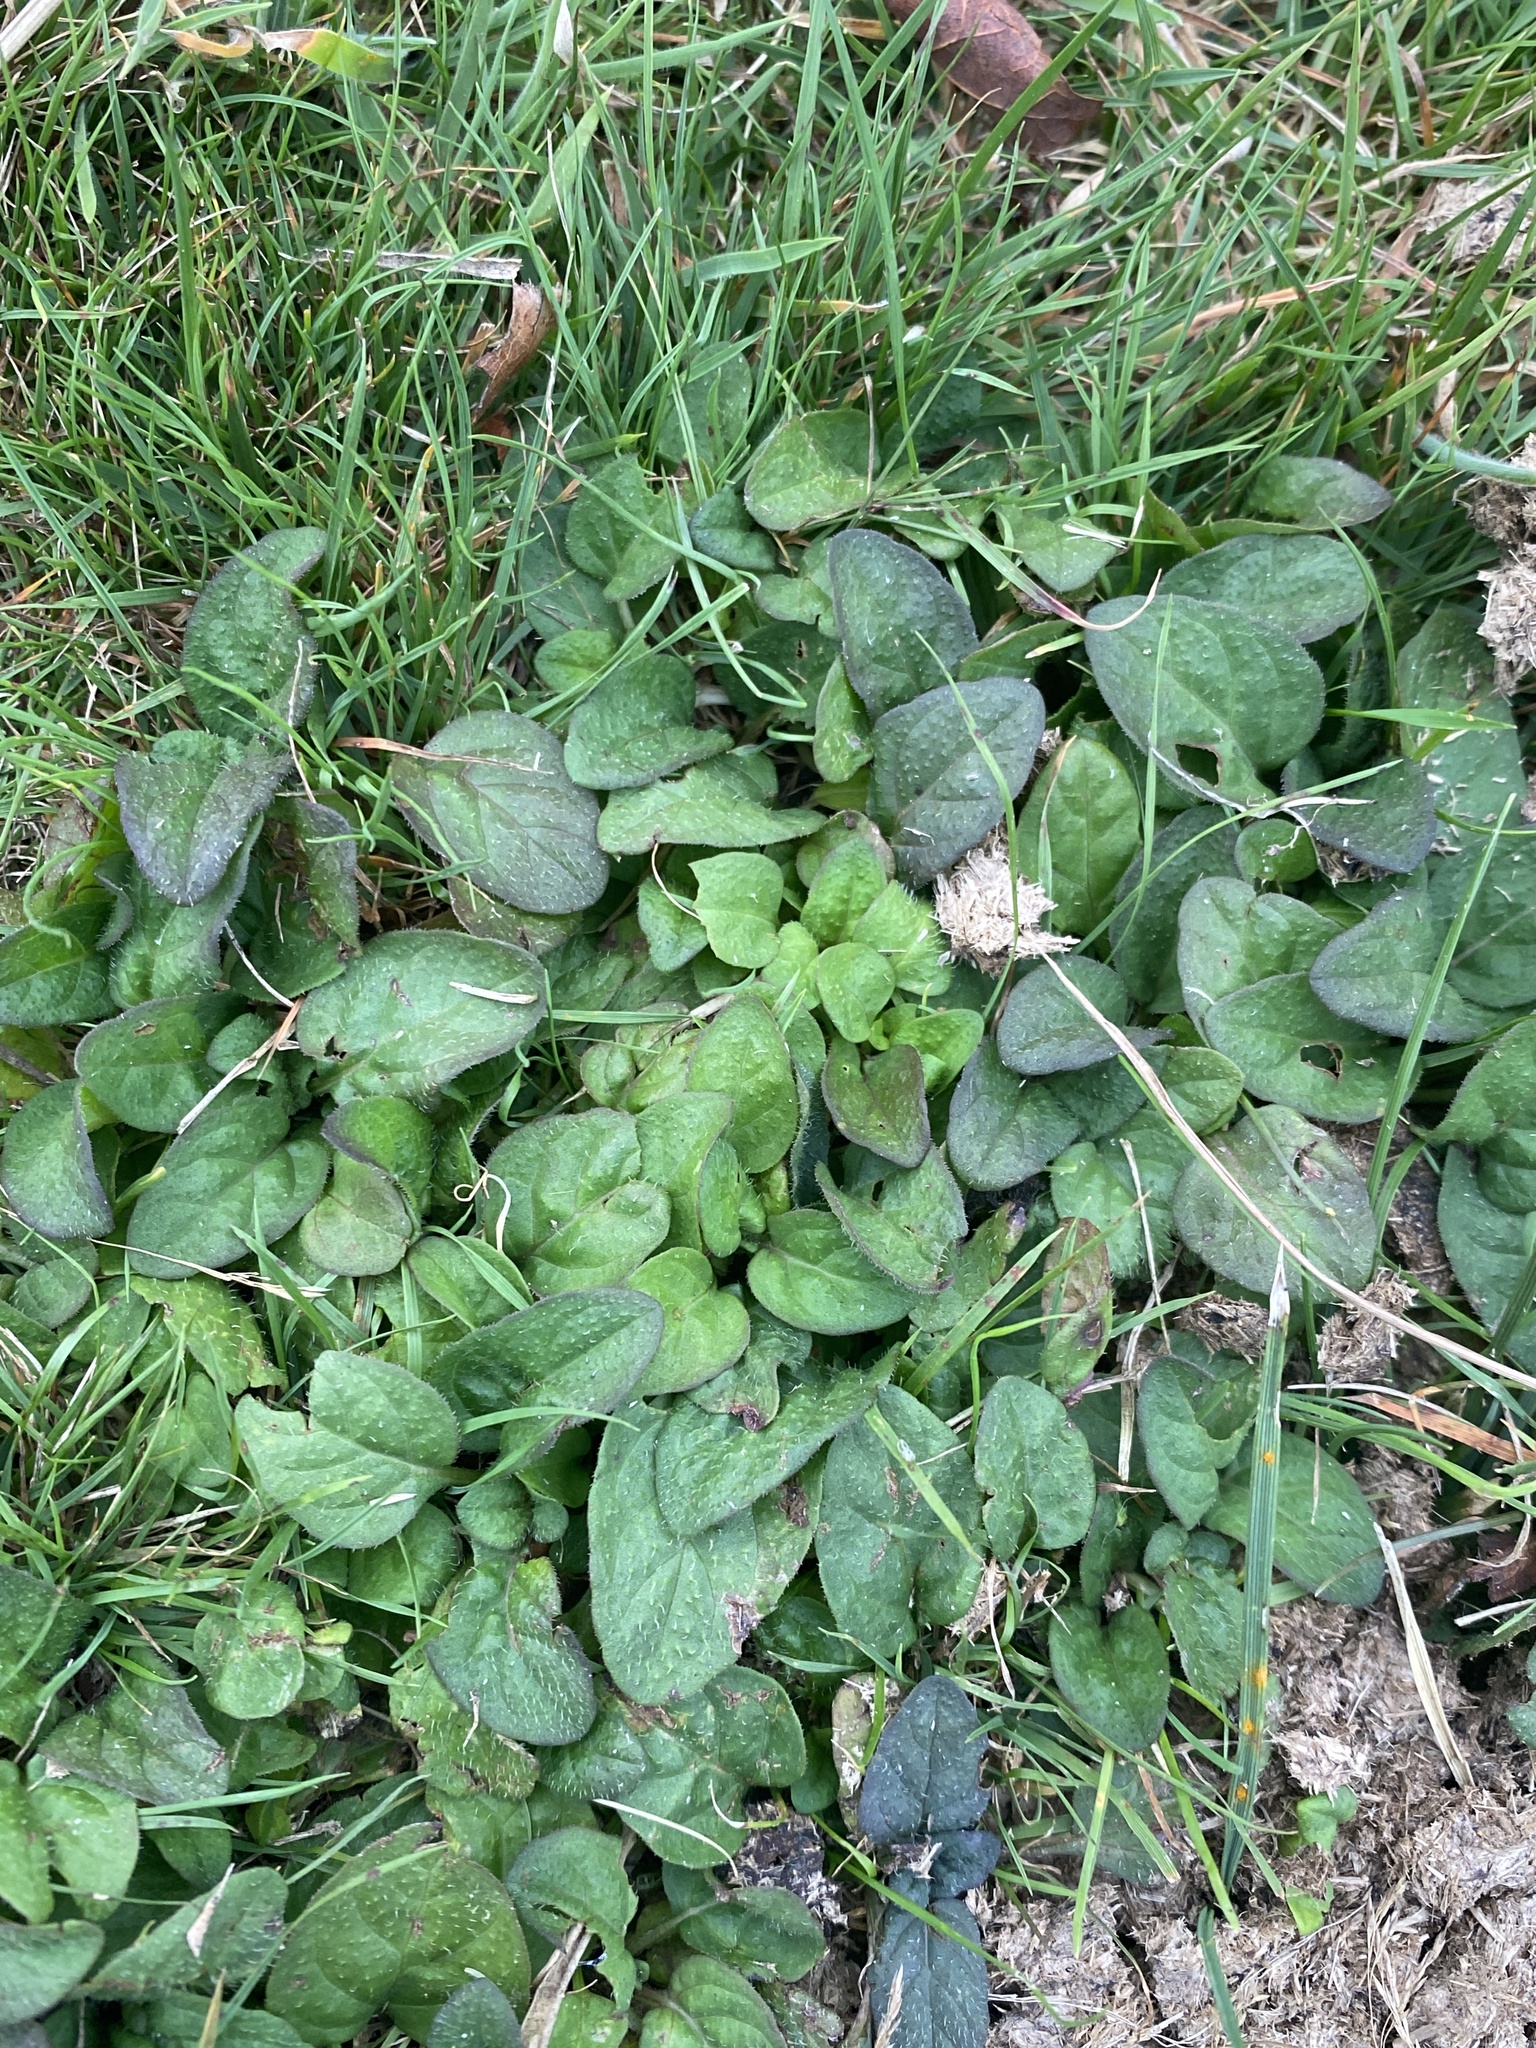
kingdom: Plantae
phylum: Tracheophyta
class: Magnoliopsida
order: Lamiales
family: Lamiaceae
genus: Prunella
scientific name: Prunella vulgaris
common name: Heal-all
